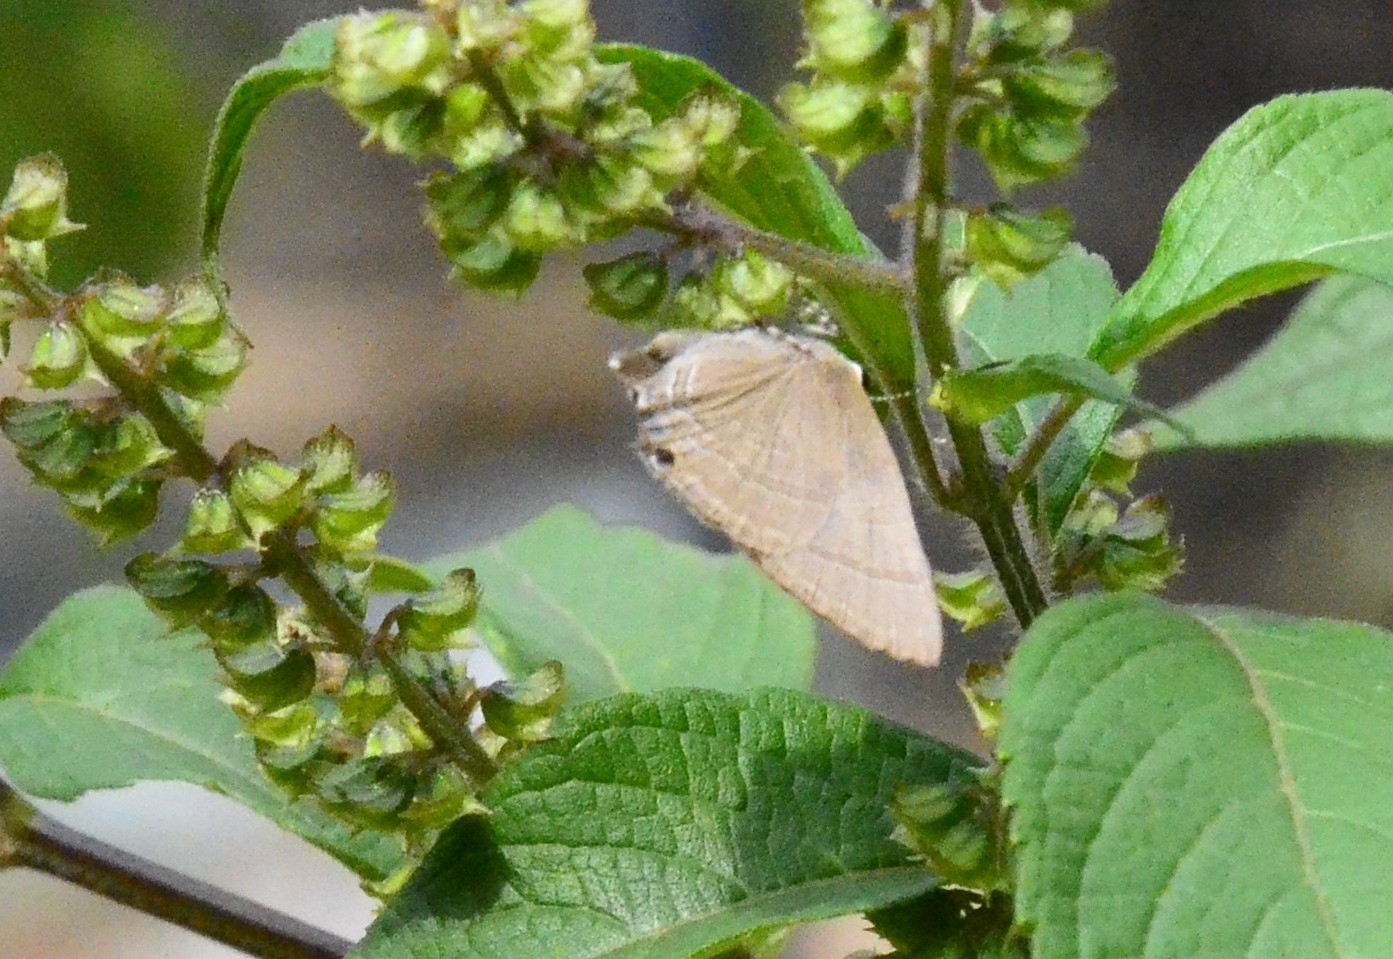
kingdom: Animalia
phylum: Arthropoda
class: Insecta
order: Lepidoptera
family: Lycaenidae
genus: Rapala
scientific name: Rapala manea
